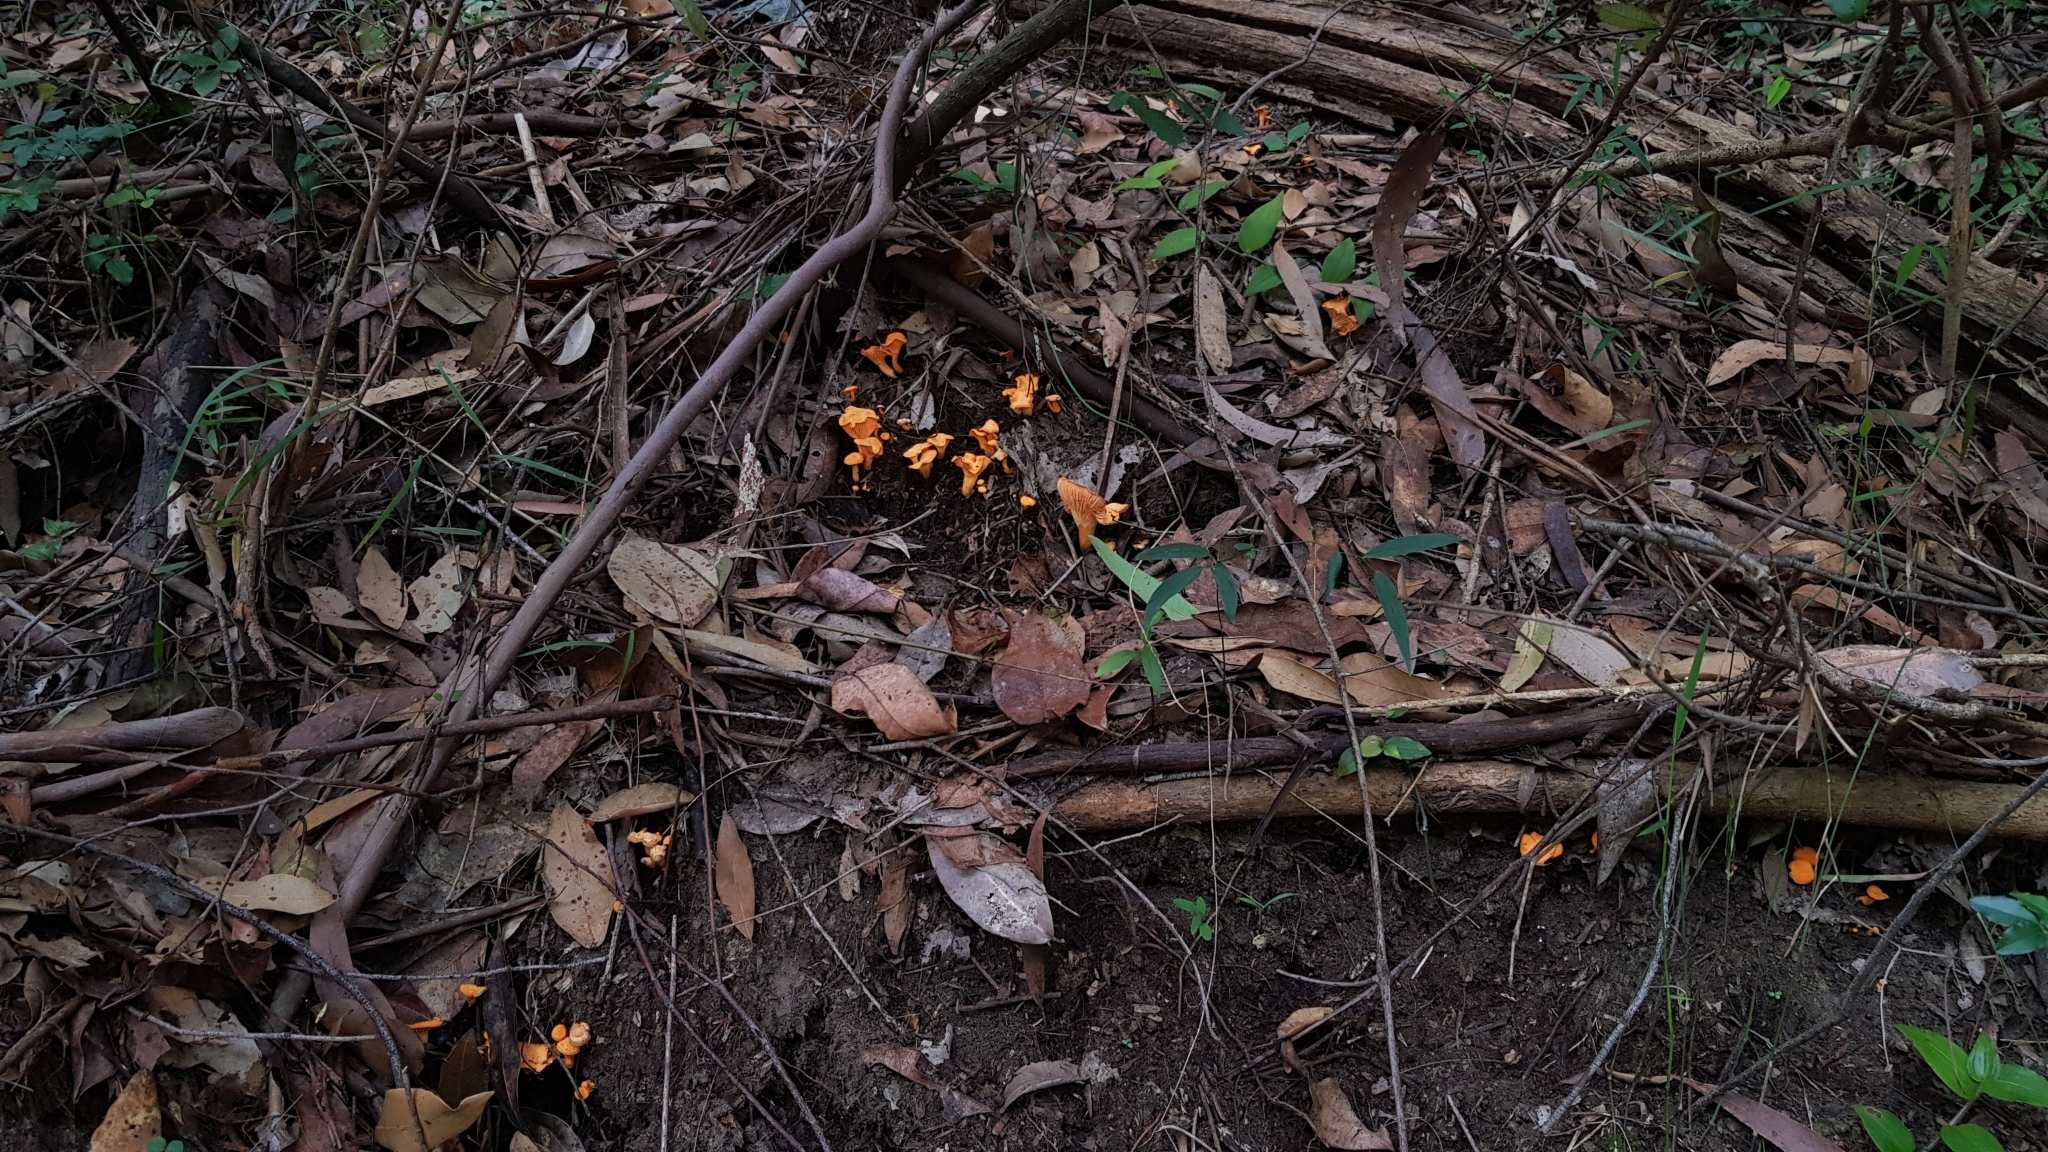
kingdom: Fungi
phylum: Basidiomycota
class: Agaricomycetes
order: Cantharellales
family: Hydnaceae
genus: Cantharellus
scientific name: Cantharellus
